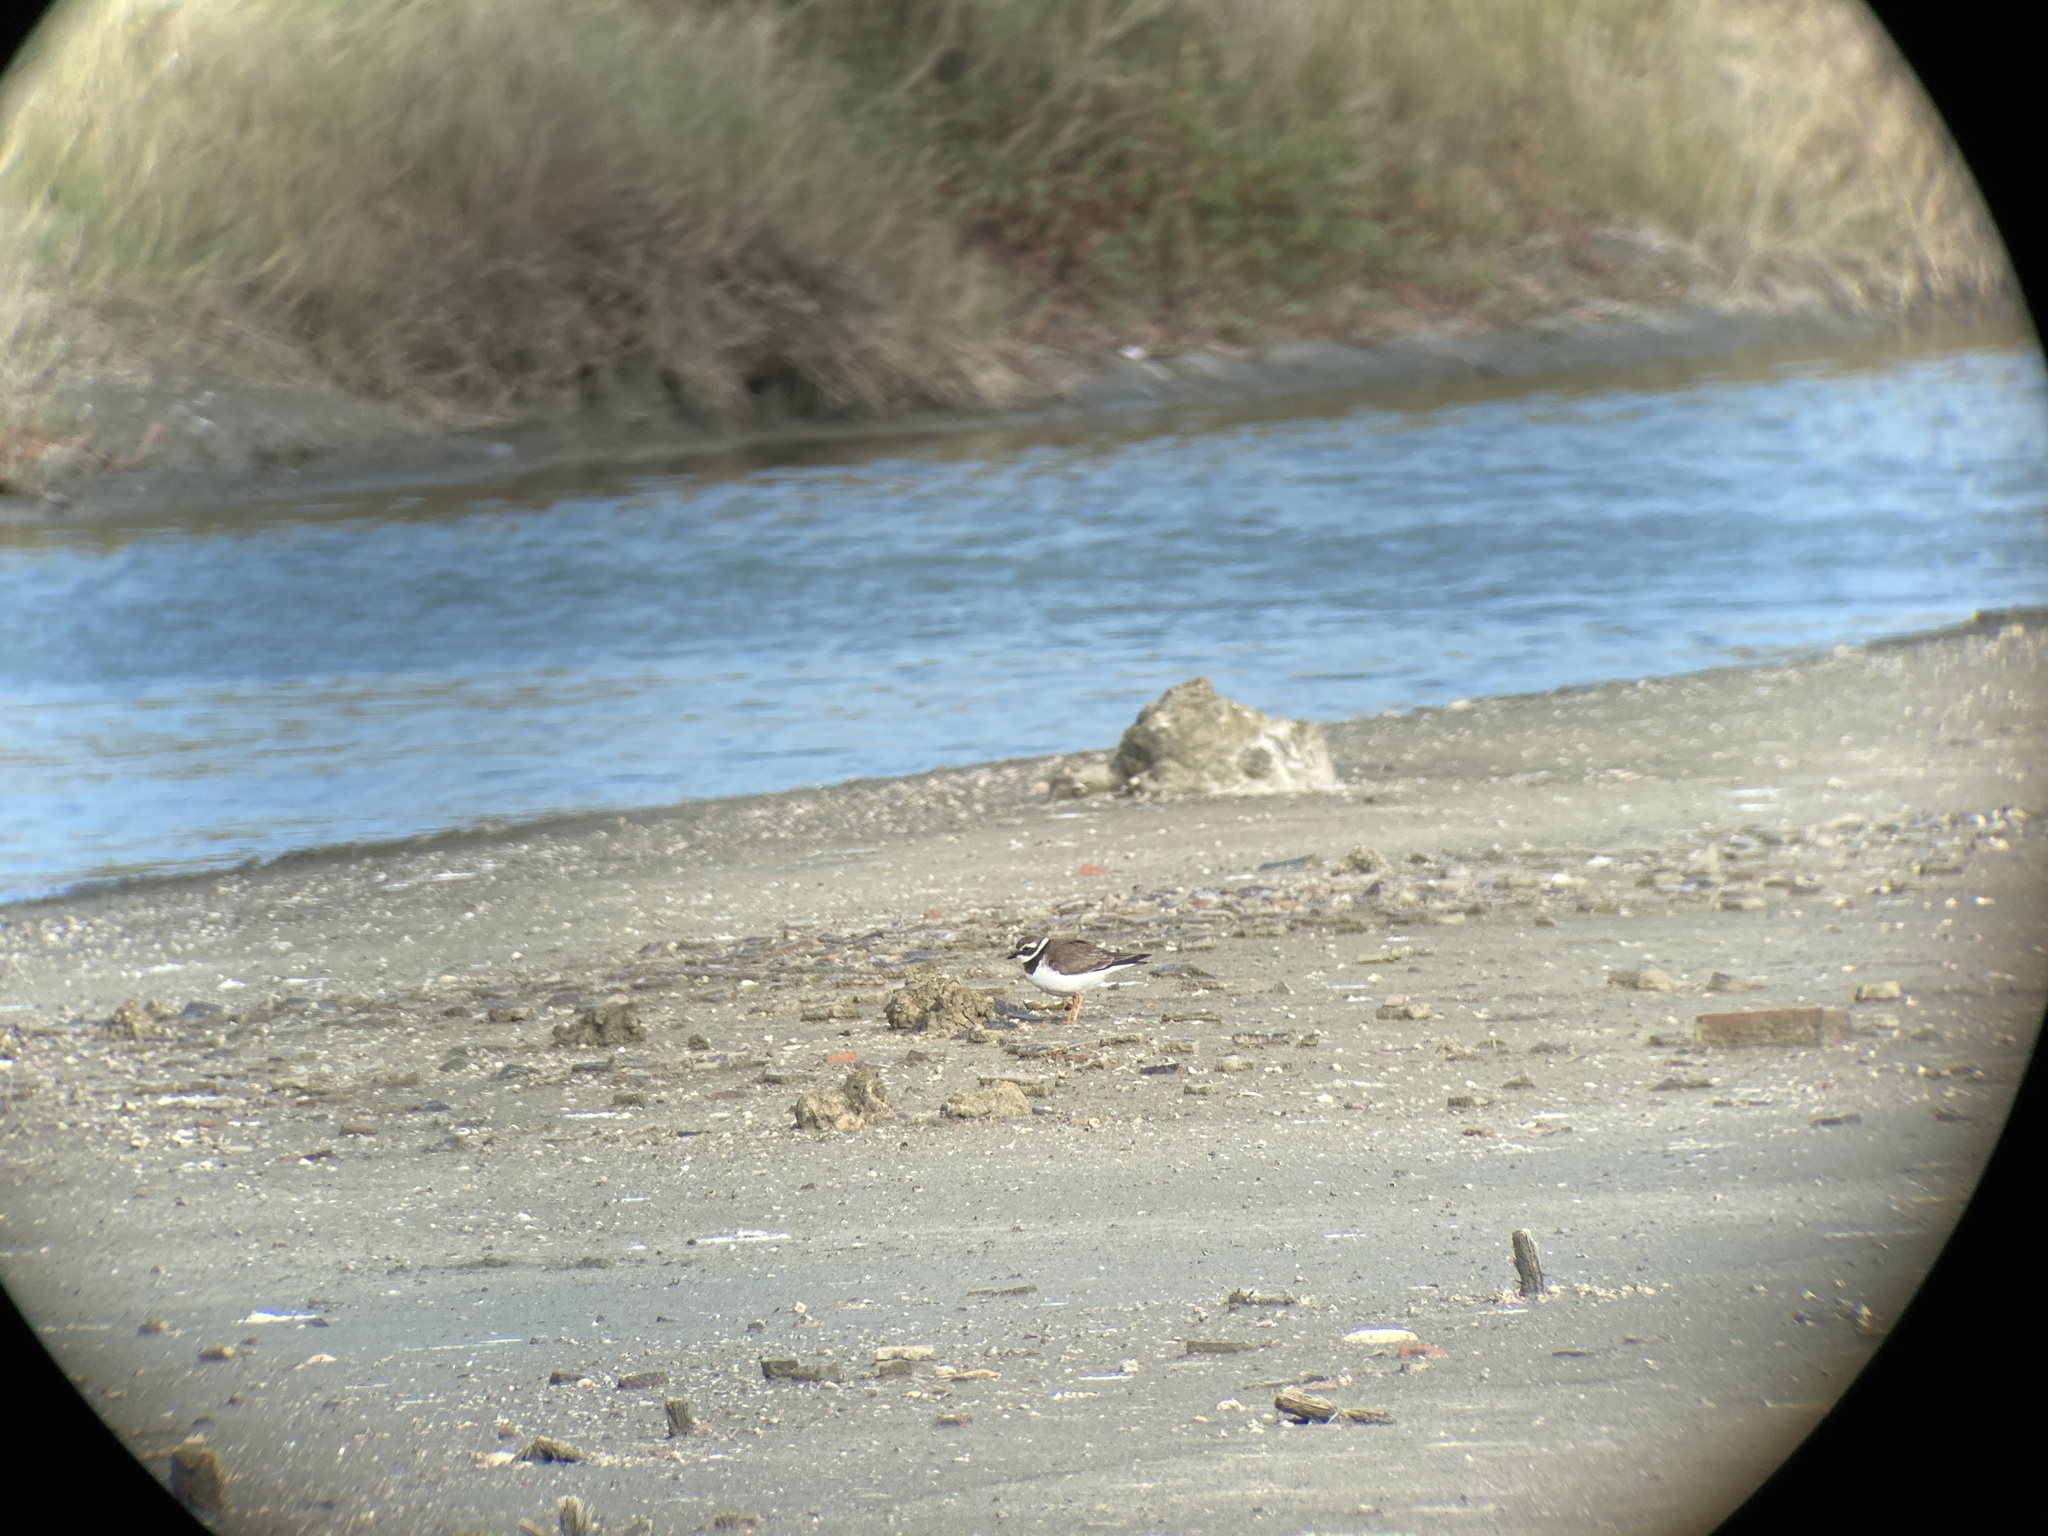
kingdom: Animalia
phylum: Chordata
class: Aves
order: Charadriiformes
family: Charadriidae
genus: Charadrius
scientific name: Charadrius hiaticula
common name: Common ringed plover
